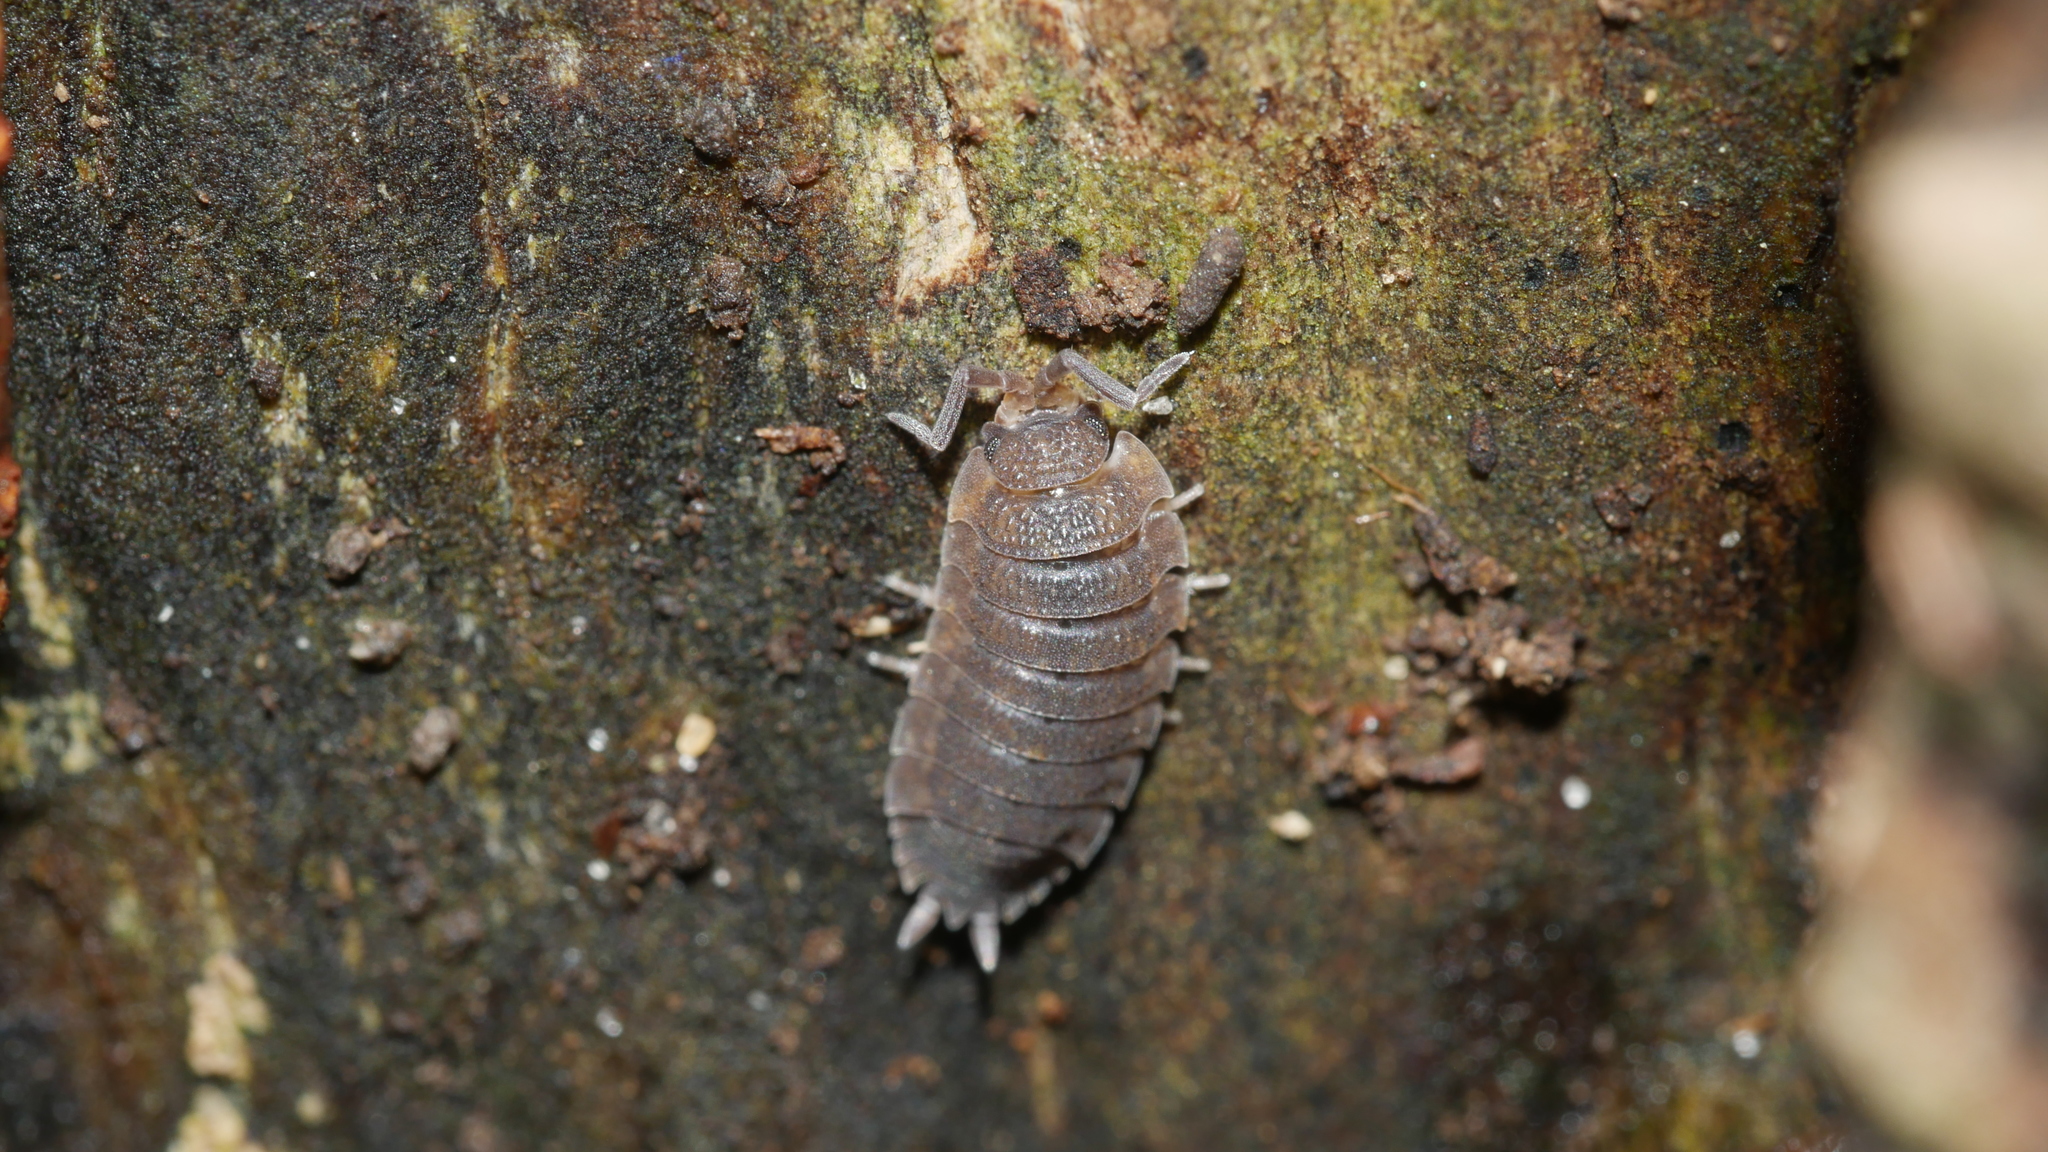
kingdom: Animalia
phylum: Arthropoda
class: Malacostraca
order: Isopoda
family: Porcellionidae
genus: Porcellio
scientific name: Porcellio scaber
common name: Common rough woodlouse
